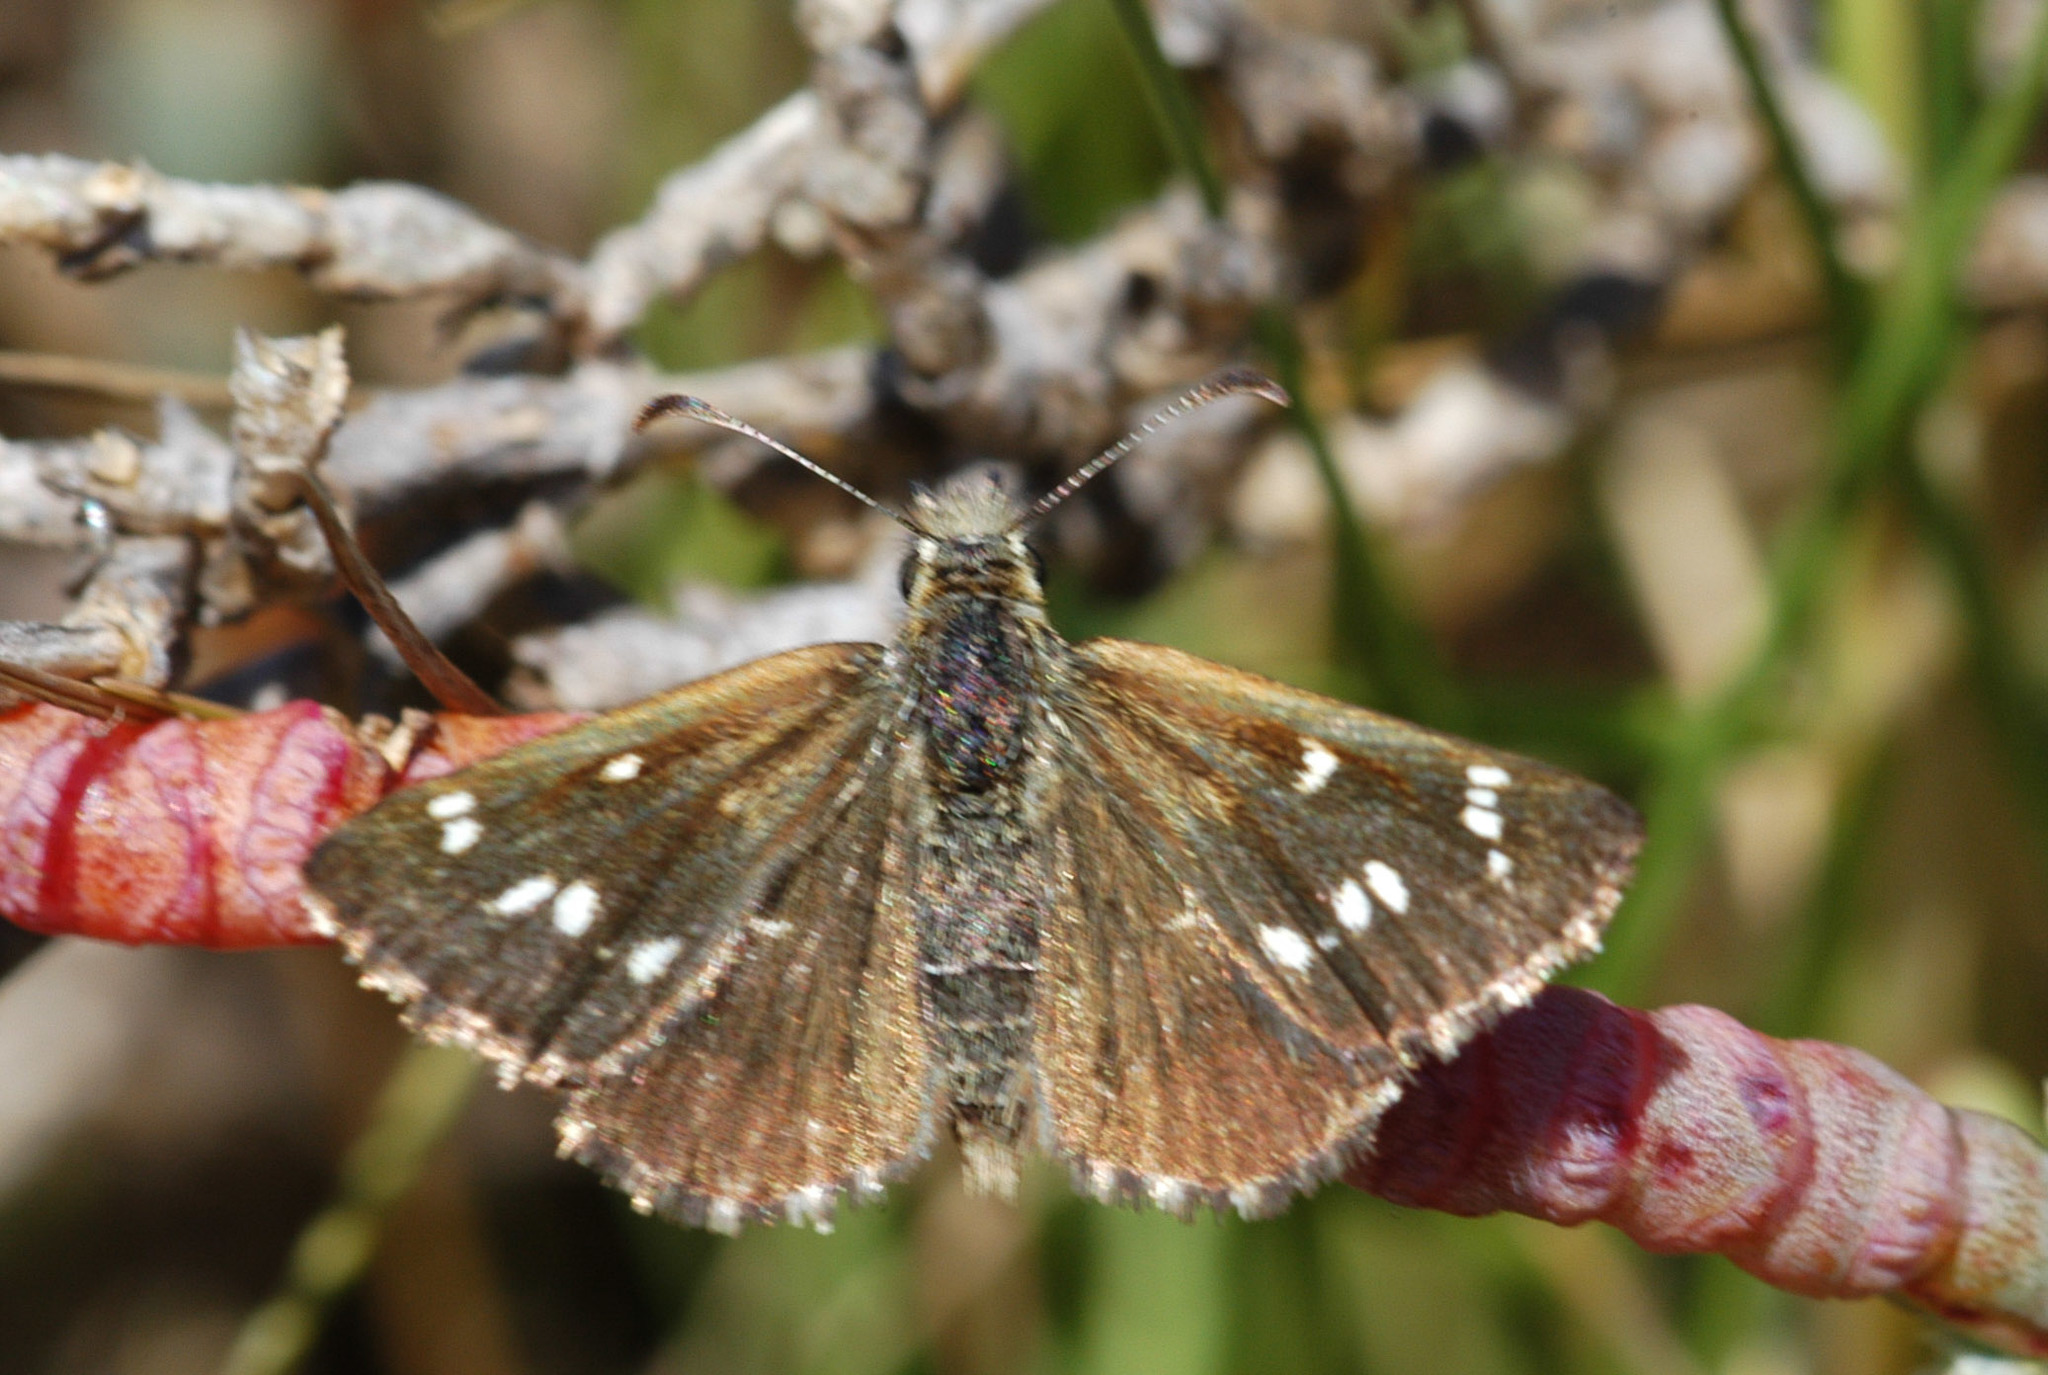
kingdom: Animalia
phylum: Arthropoda
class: Insecta
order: Lepidoptera
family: Hesperiidae
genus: Anisynta
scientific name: Anisynta cynone
